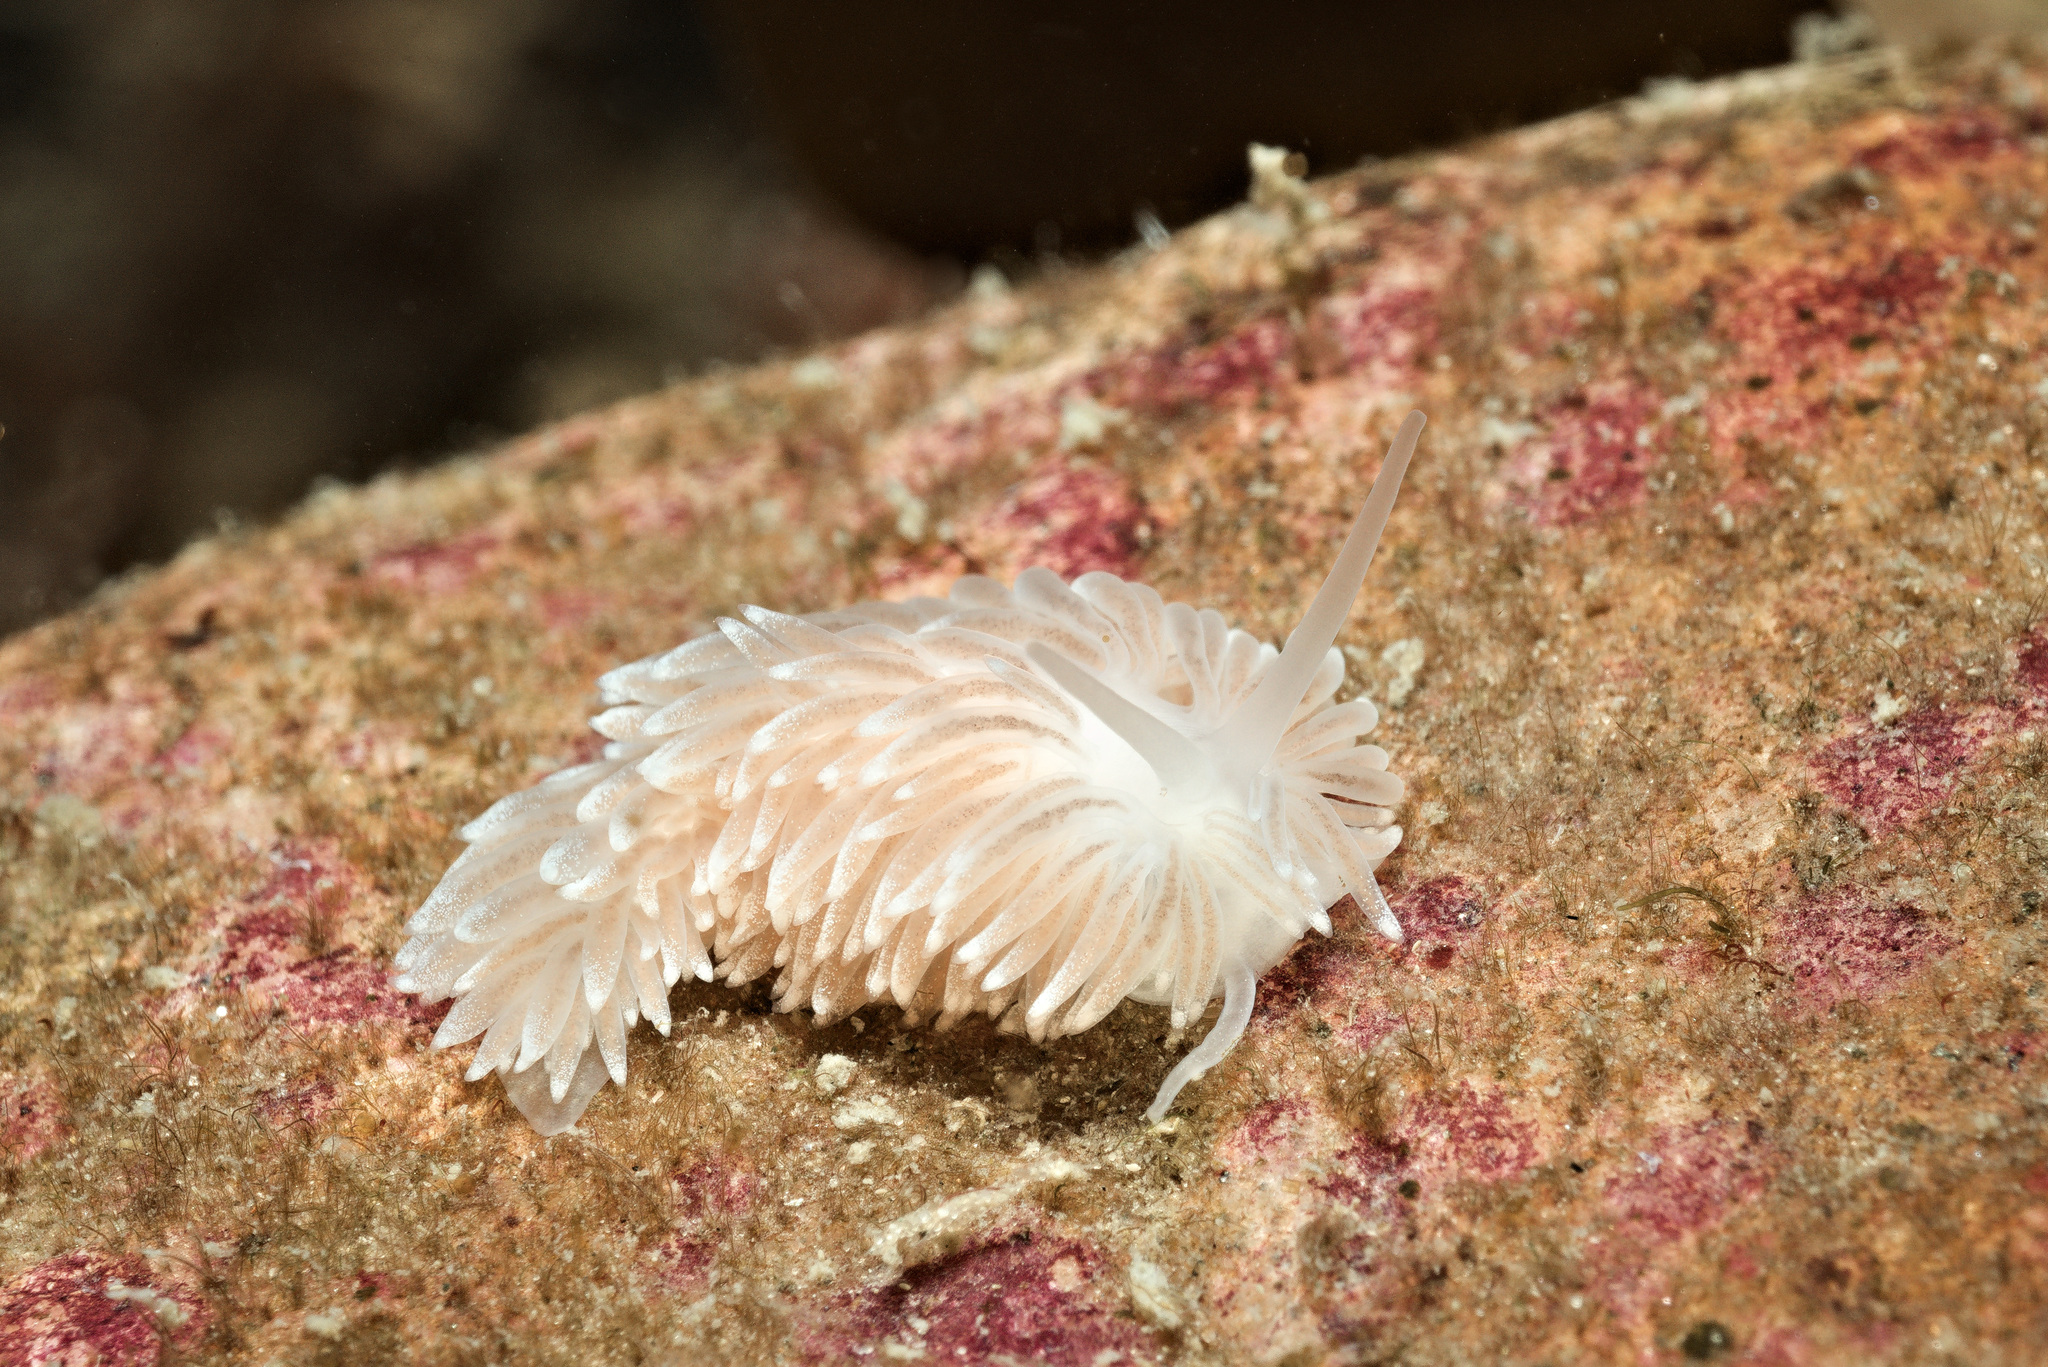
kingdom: Animalia
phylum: Mollusca
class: Gastropoda
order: Nudibranchia
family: Cuthonidae
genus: Cuthona
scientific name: Cuthona nana
